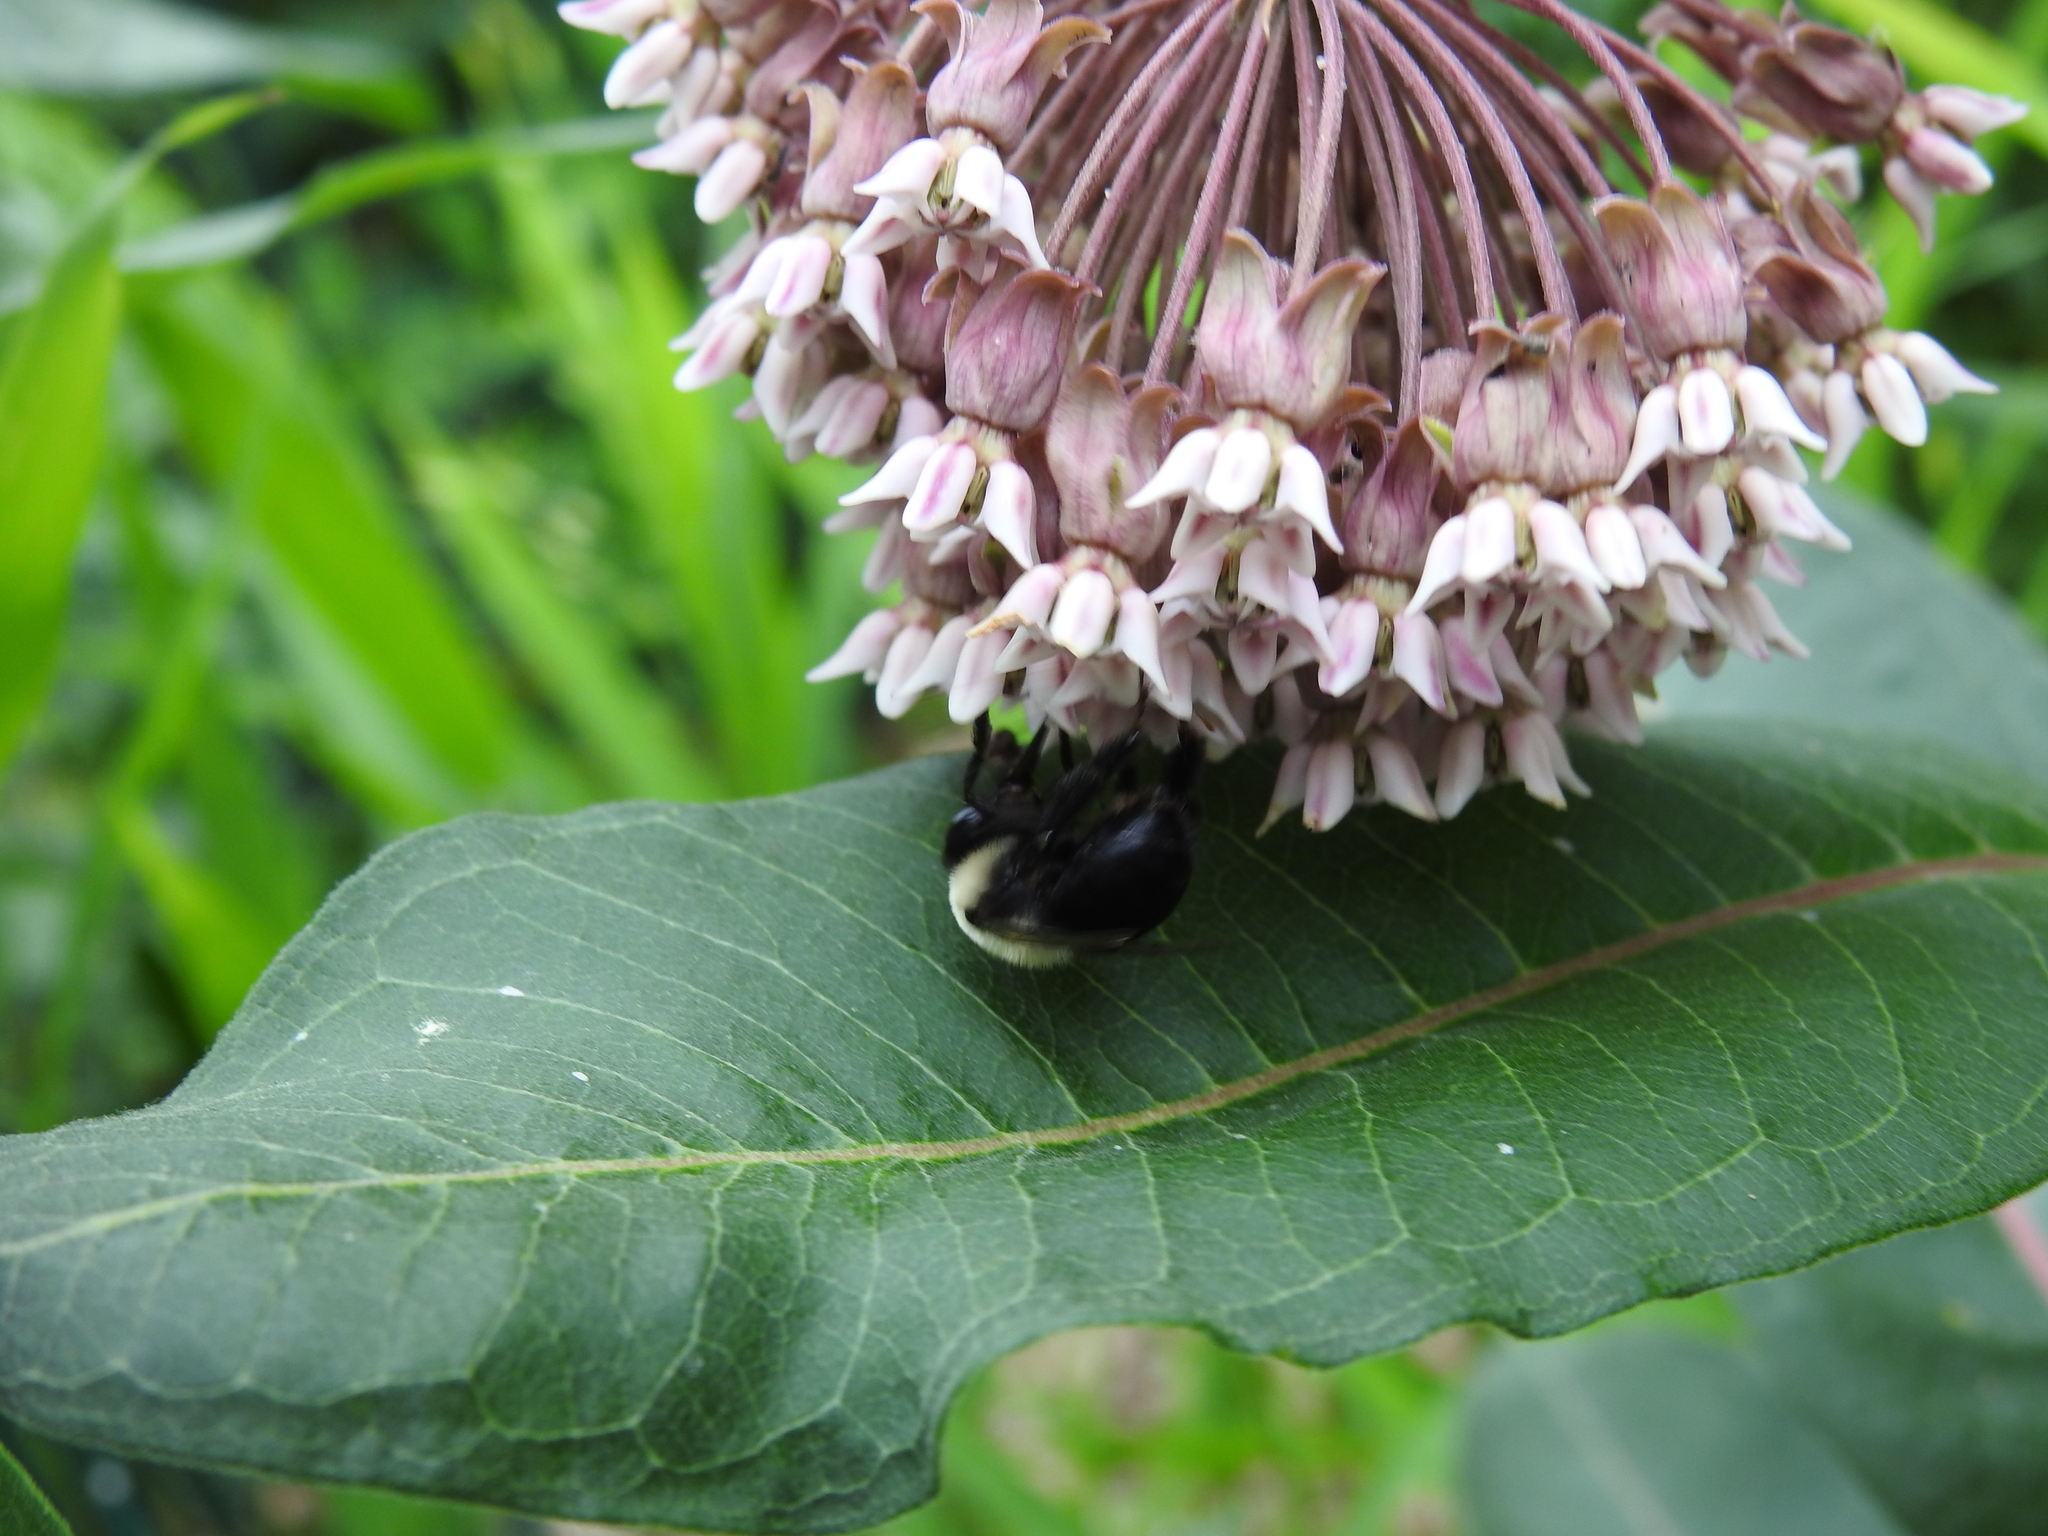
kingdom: Animalia
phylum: Arthropoda
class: Insecta
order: Hymenoptera
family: Apidae
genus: Bombus
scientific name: Bombus griseocollis
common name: Brown-belted bumble bee
